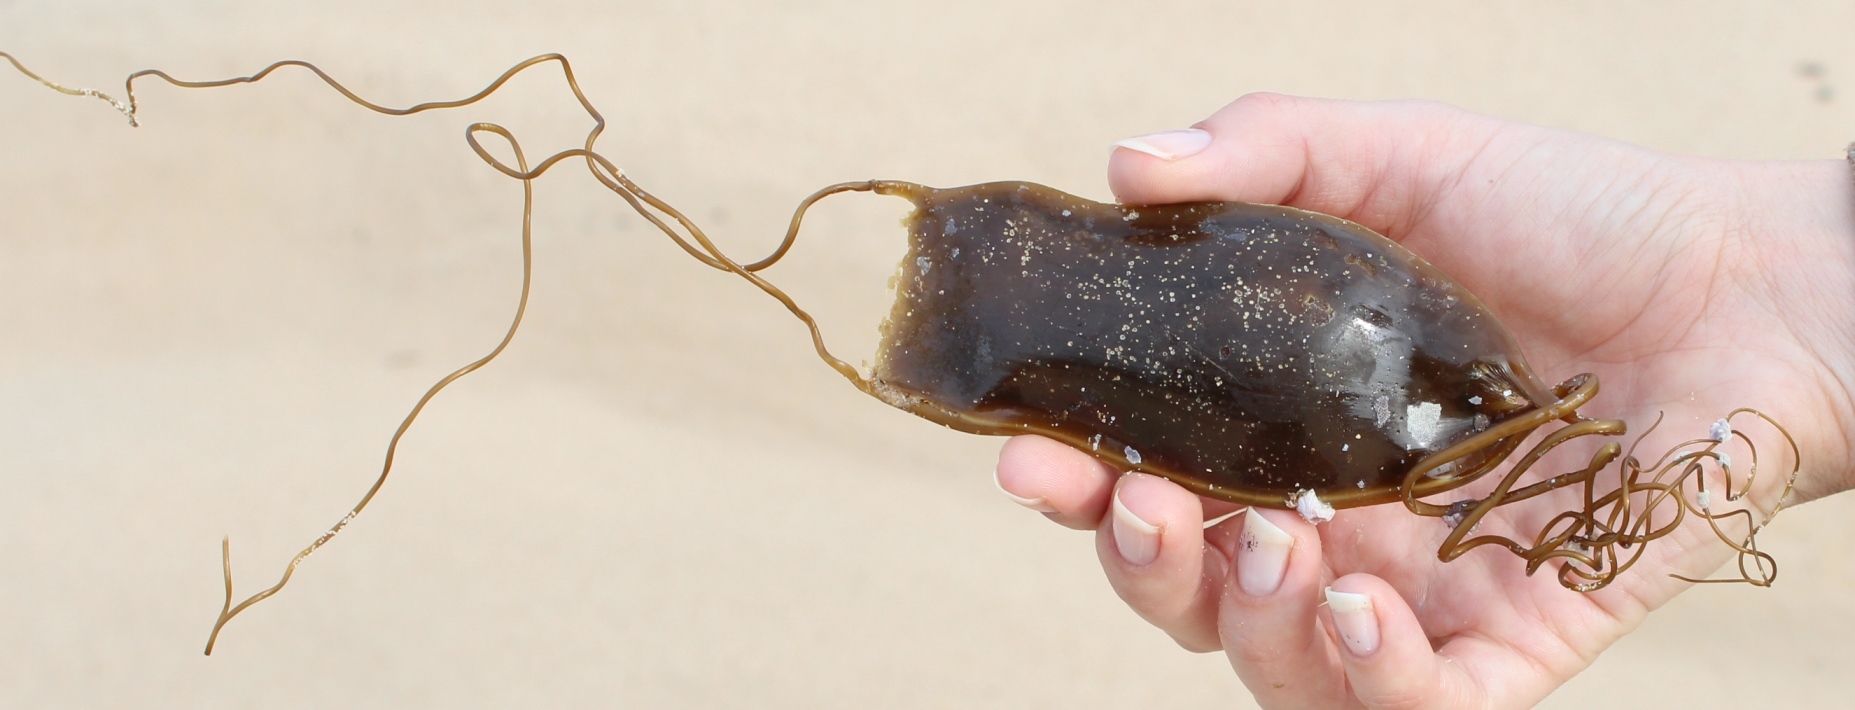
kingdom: Animalia
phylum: Chordata
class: Elasmobranchii
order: Carcharhiniformes
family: Scyliorhinidae
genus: Poroderma
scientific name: Poroderma africanum
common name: Pyjama shark
